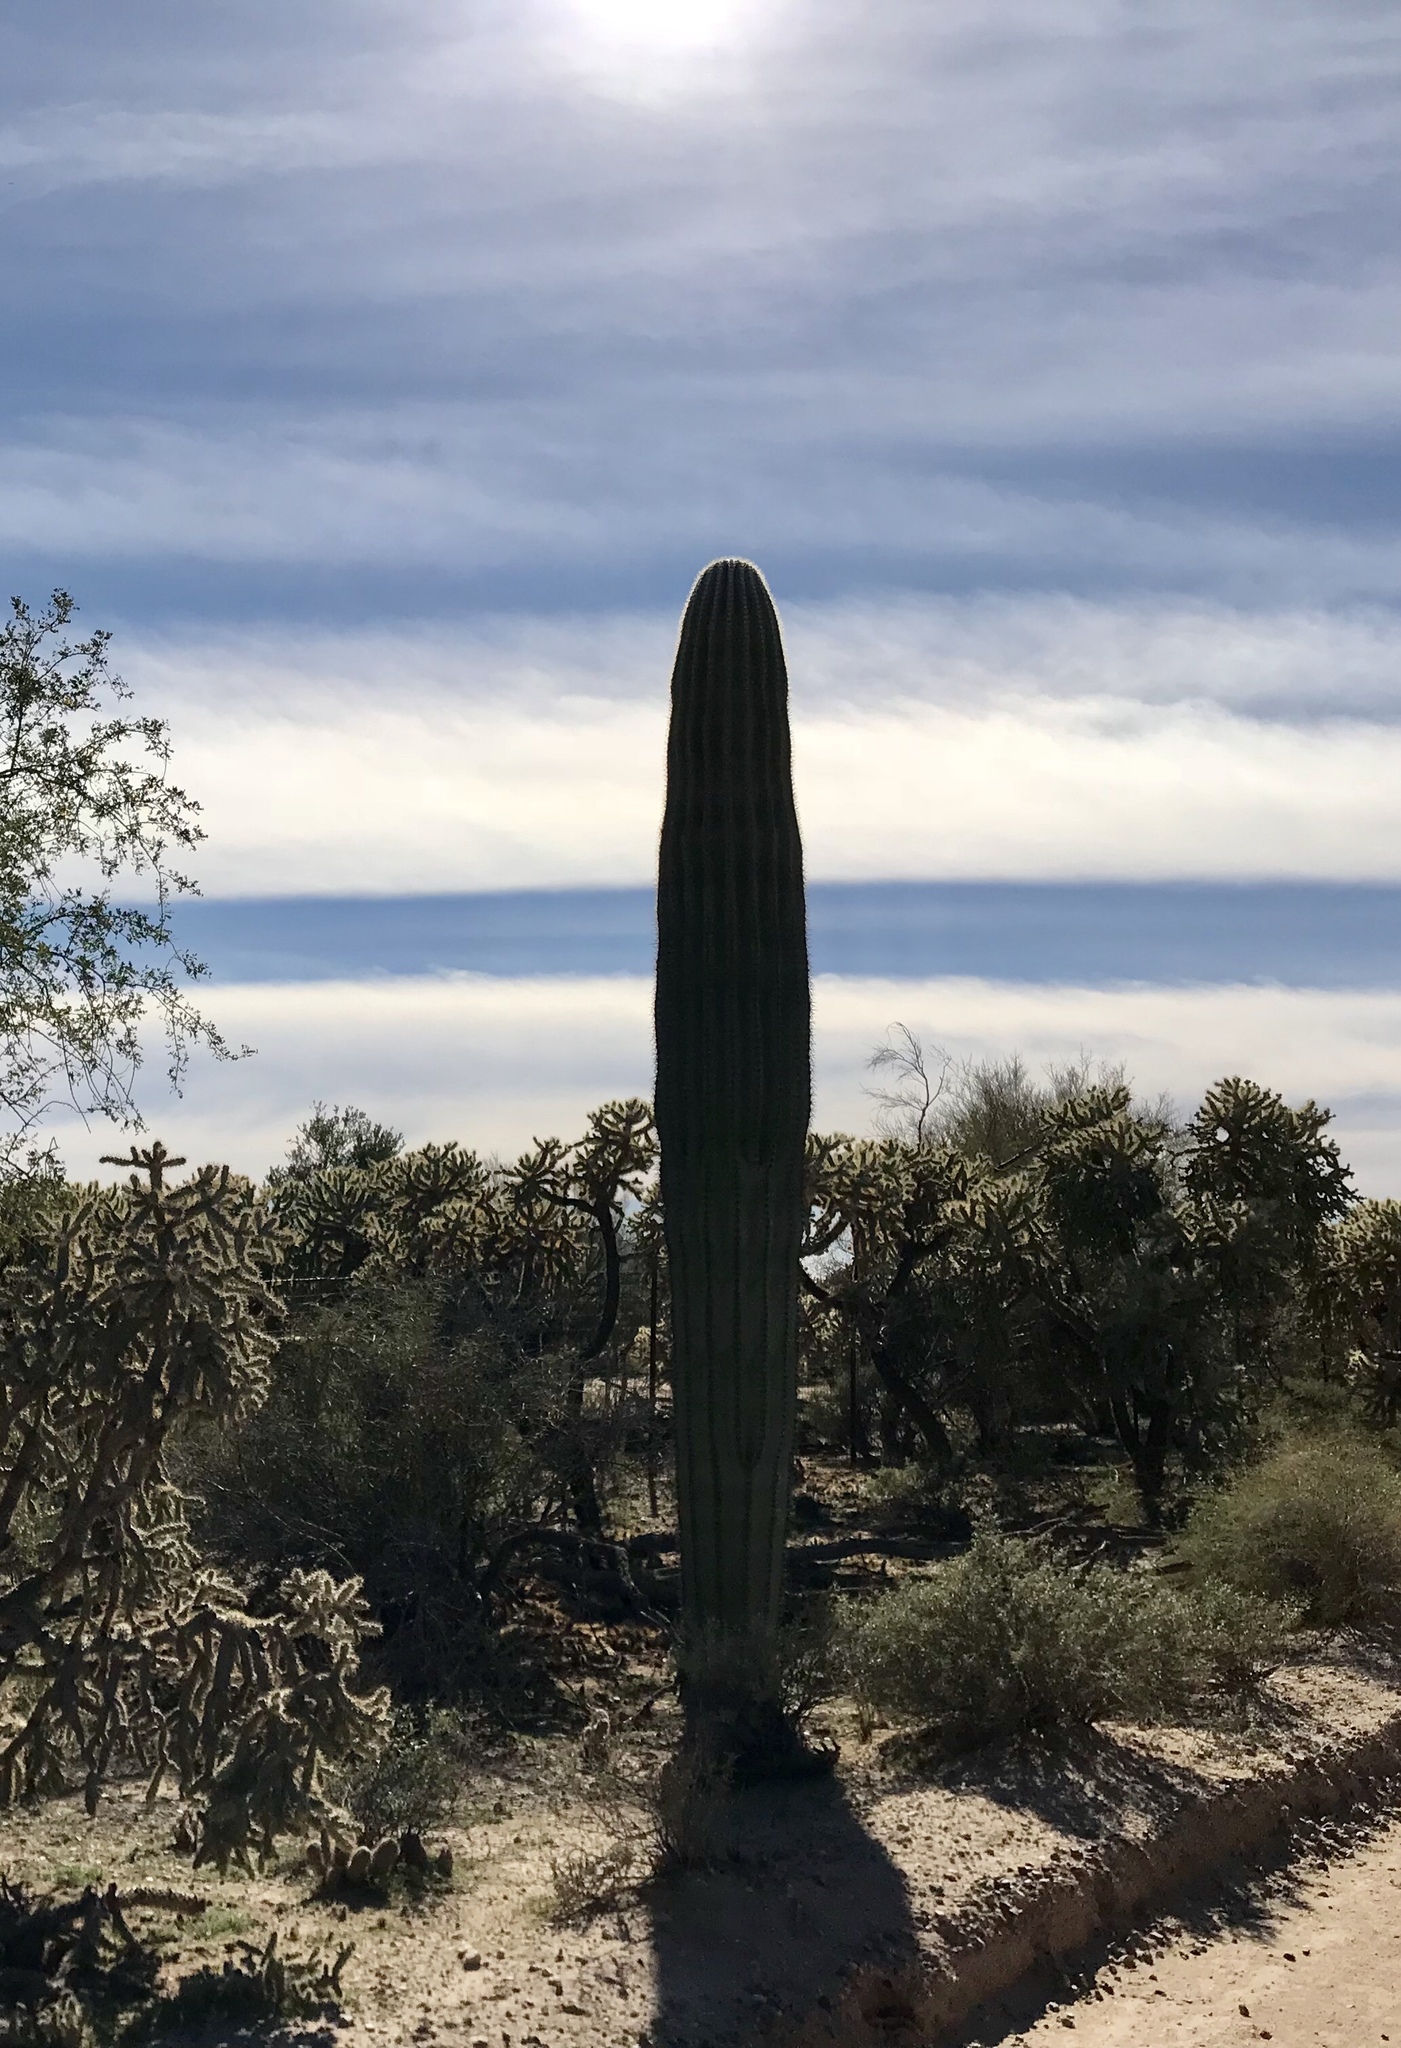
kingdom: Plantae
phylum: Tracheophyta
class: Magnoliopsida
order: Caryophyllales
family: Cactaceae
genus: Carnegiea
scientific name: Carnegiea gigantea
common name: Saguaro
